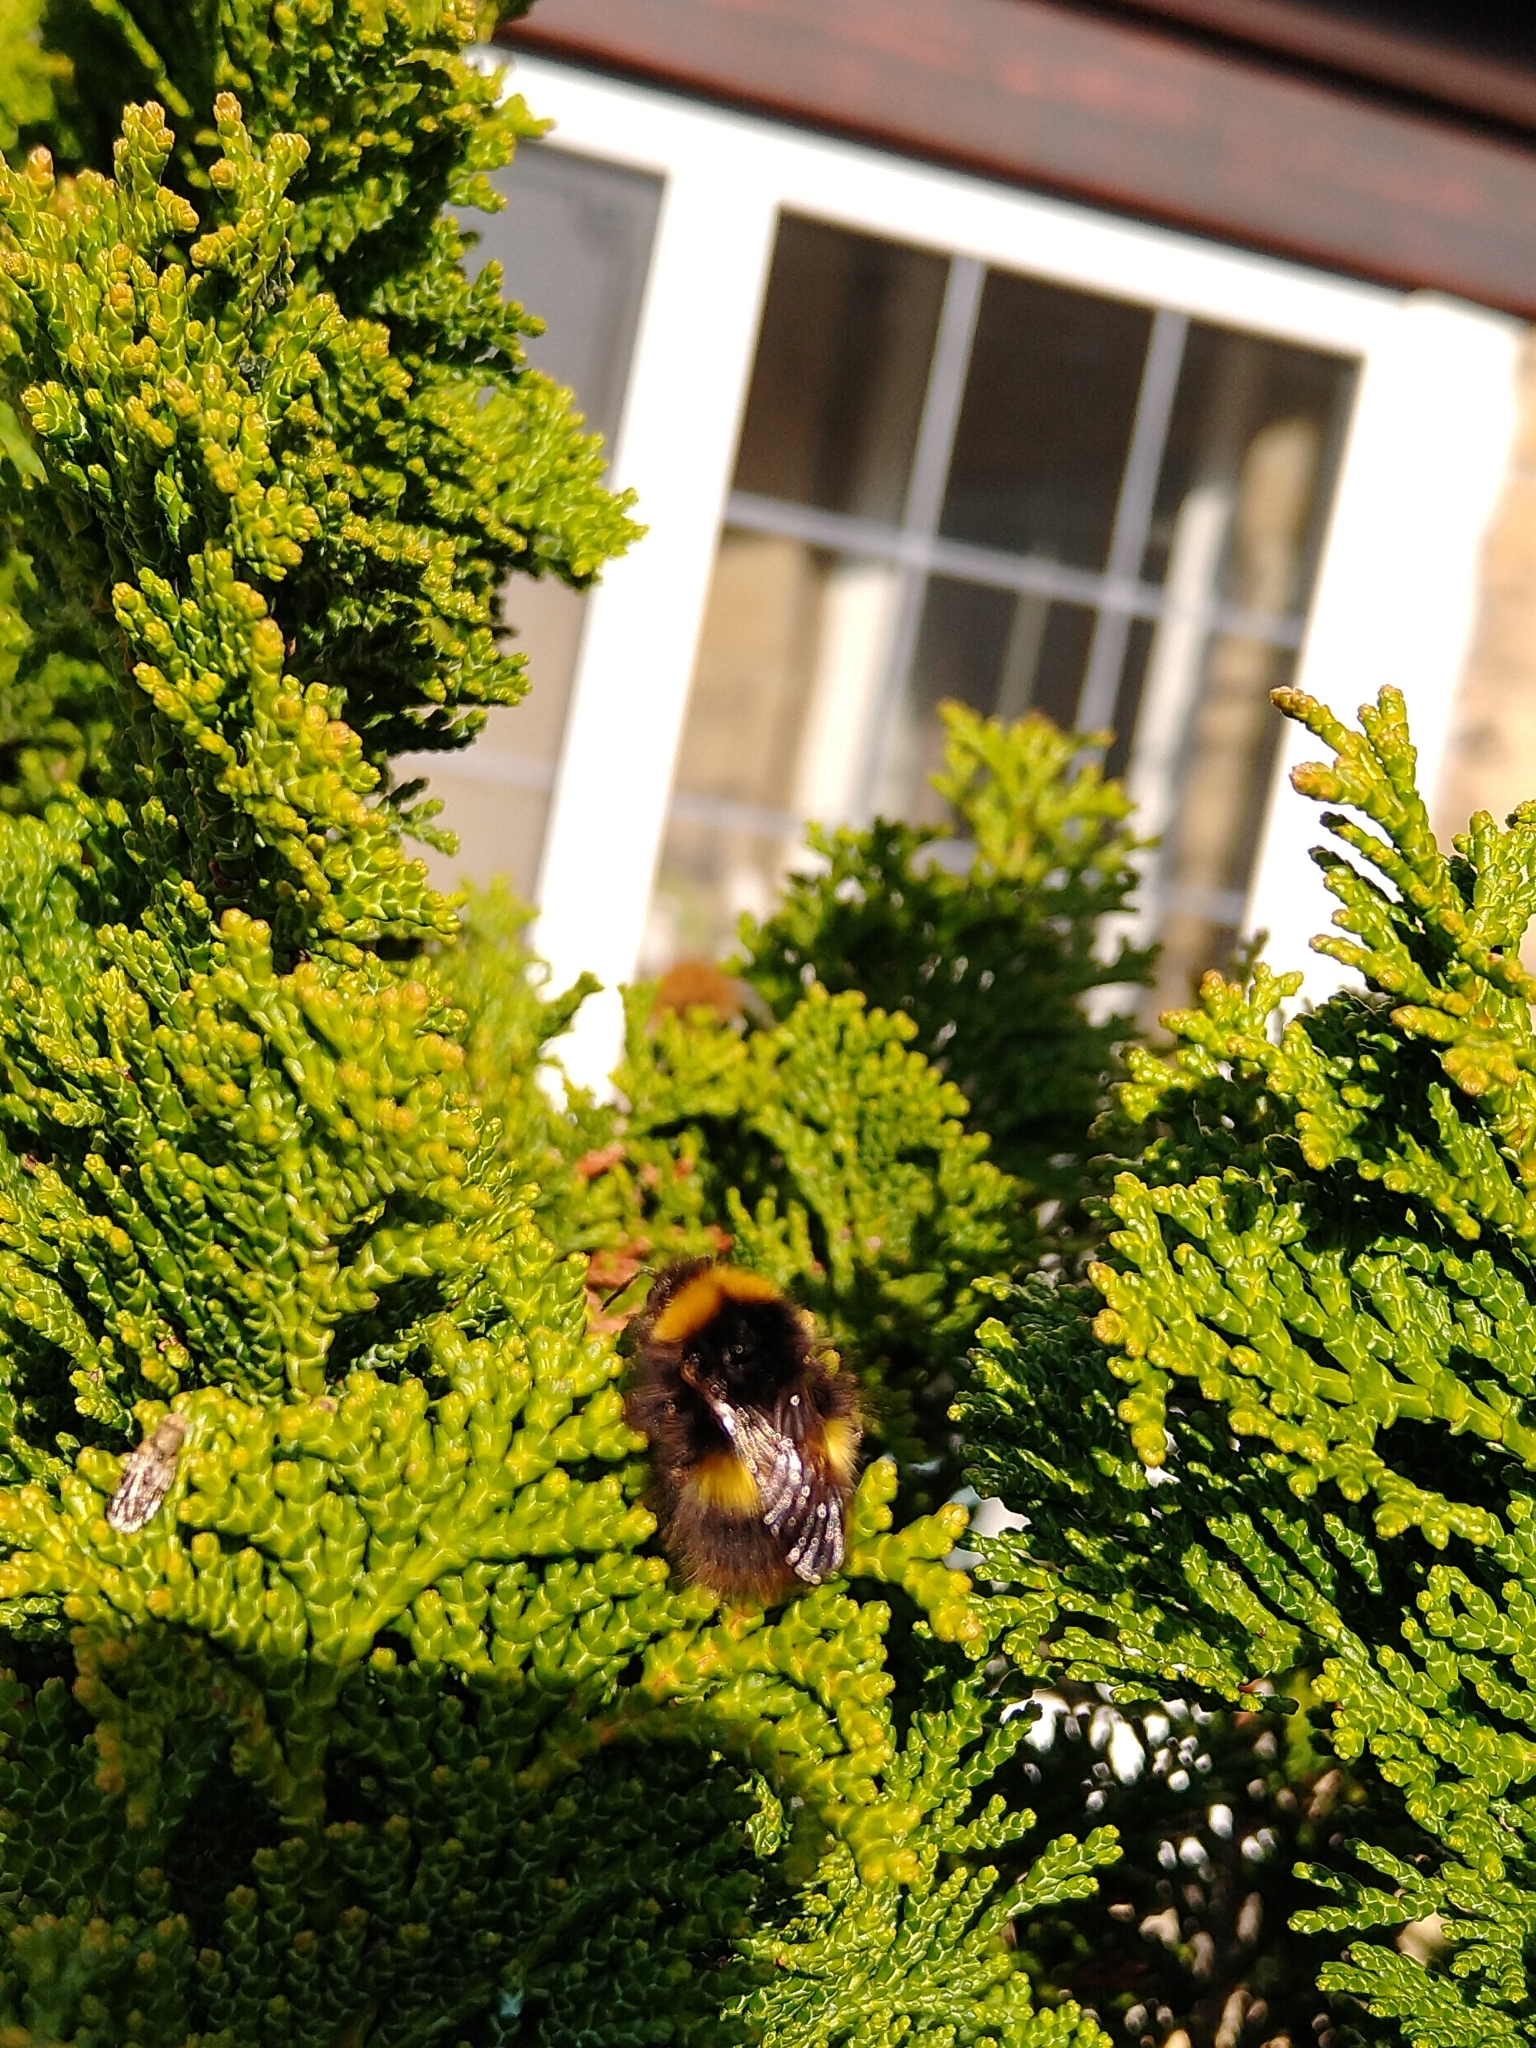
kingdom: Animalia
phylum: Arthropoda
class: Insecta
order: Hymenoptera
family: Apidae
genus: Bombus
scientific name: Bombus pratorum
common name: Early humble-bee
